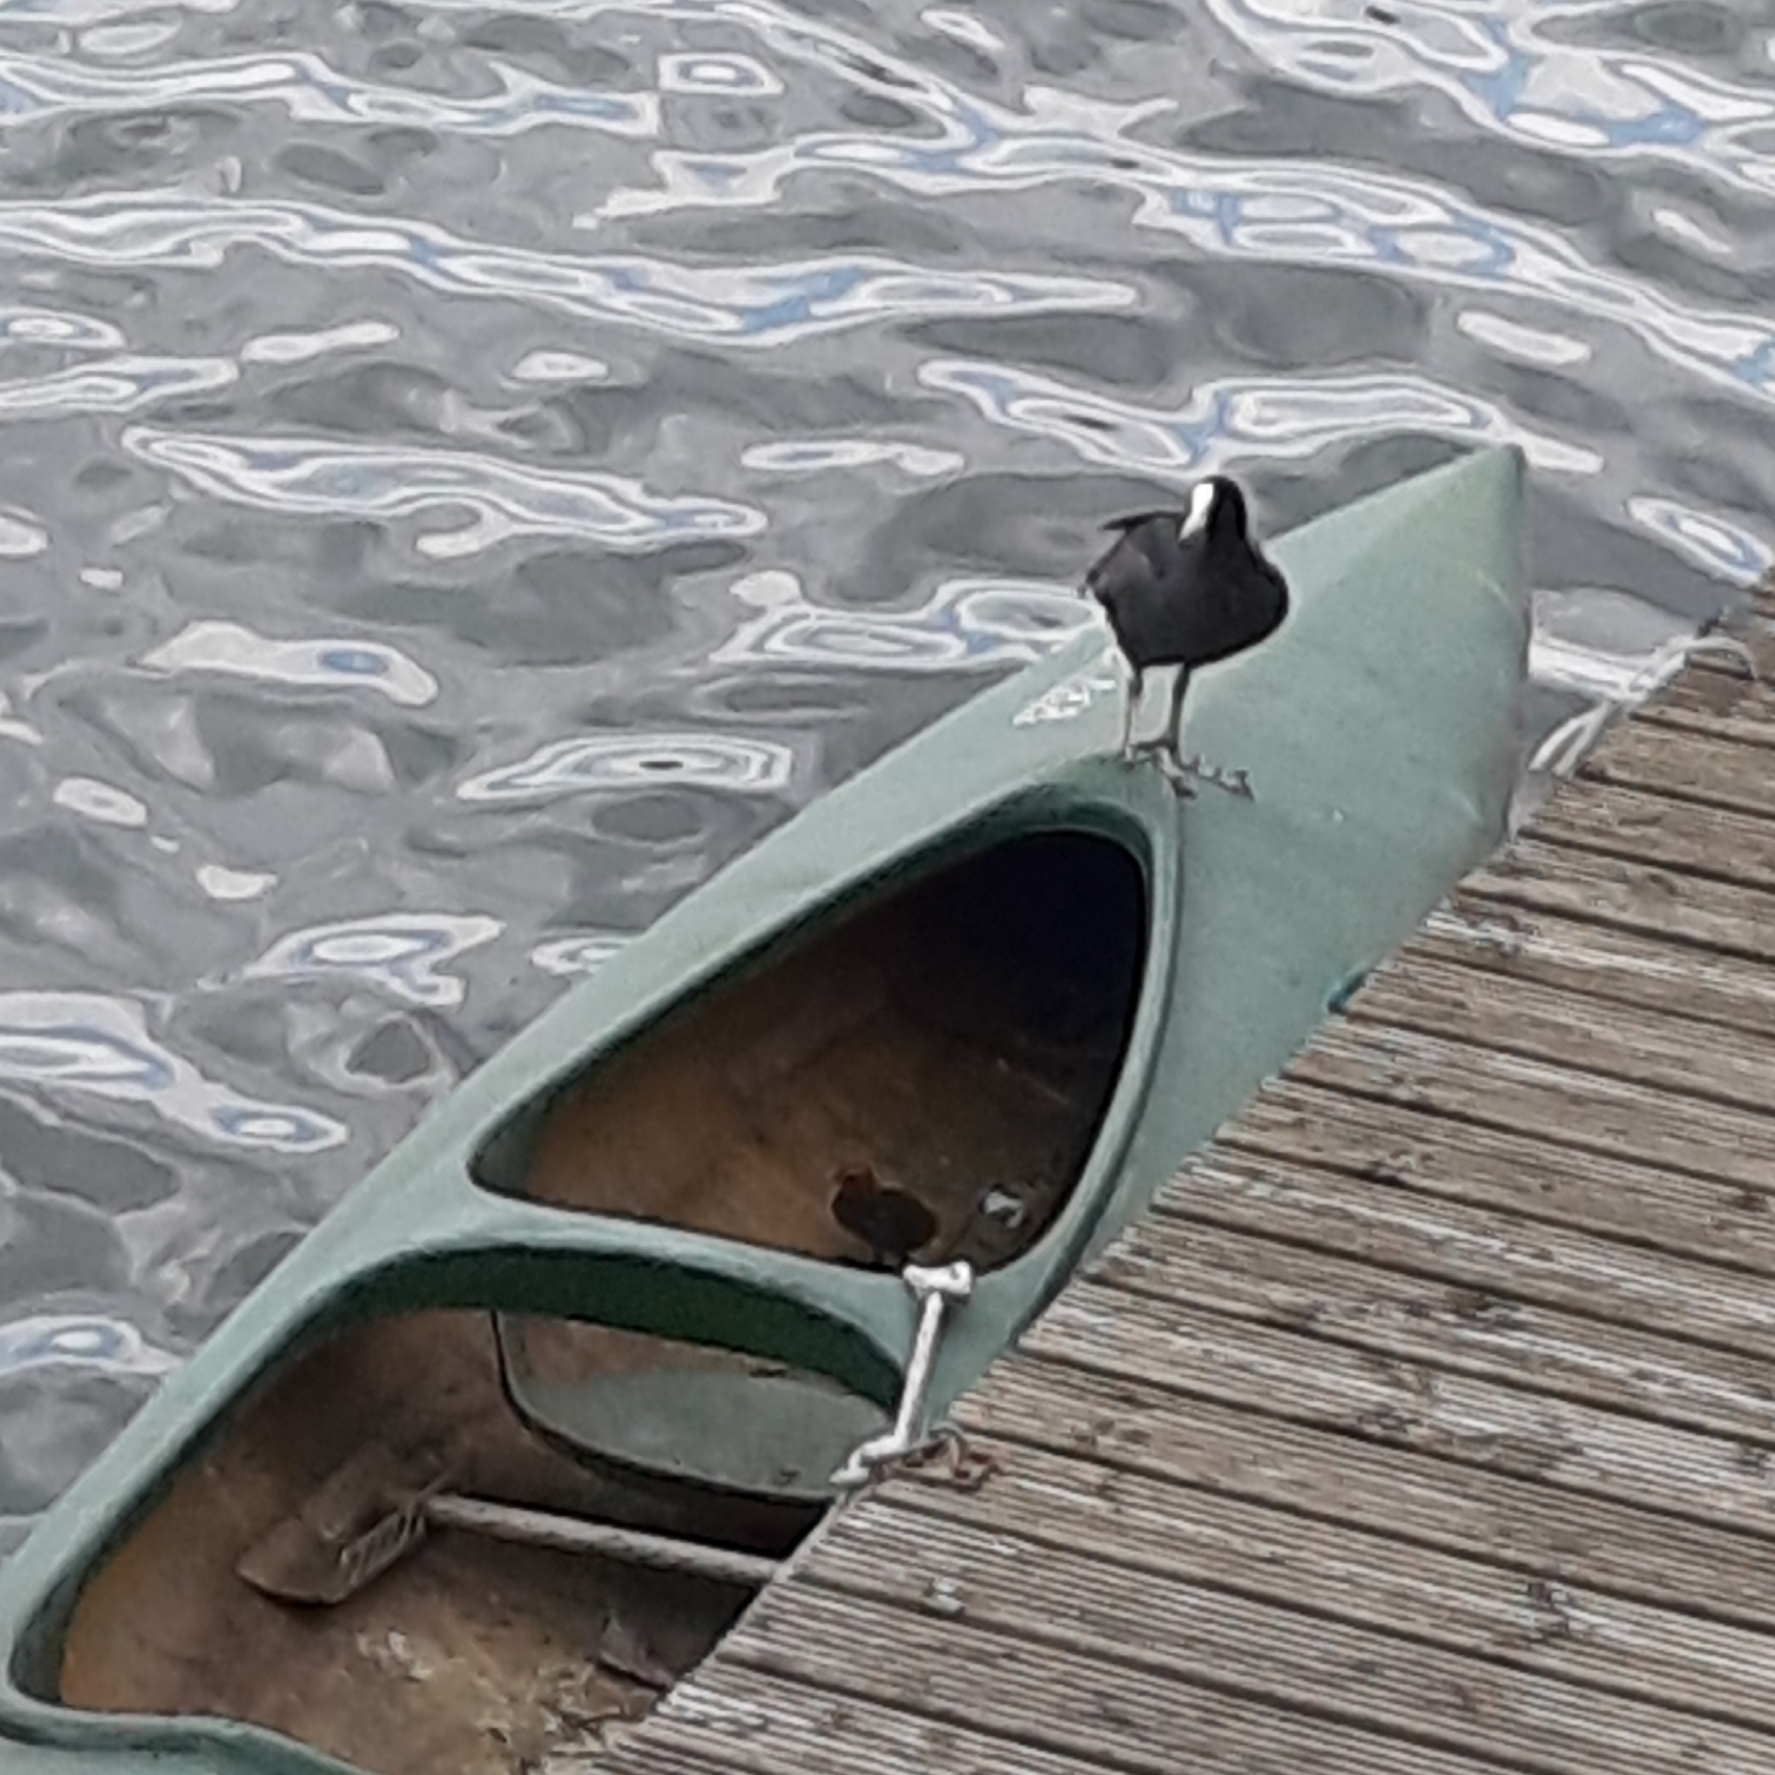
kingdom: Animalia
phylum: Chordata
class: Aves
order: Gruiformes
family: Rallidae
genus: Fulica
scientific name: Fulica atra
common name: Eurasian coot
